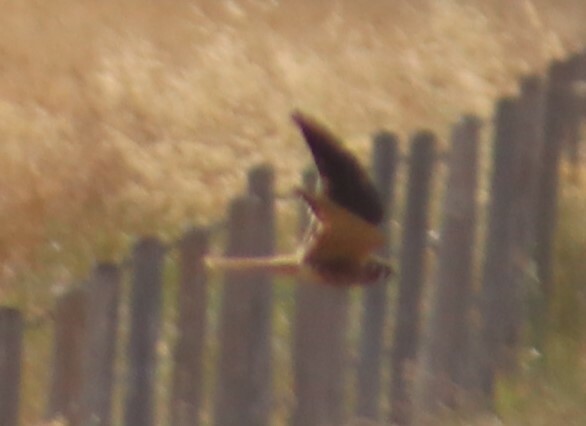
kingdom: Animalia
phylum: Chordata
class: Aves
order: Falconiformes
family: Falconidae
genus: Falco
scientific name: Falco sparverius
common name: American kestrel
